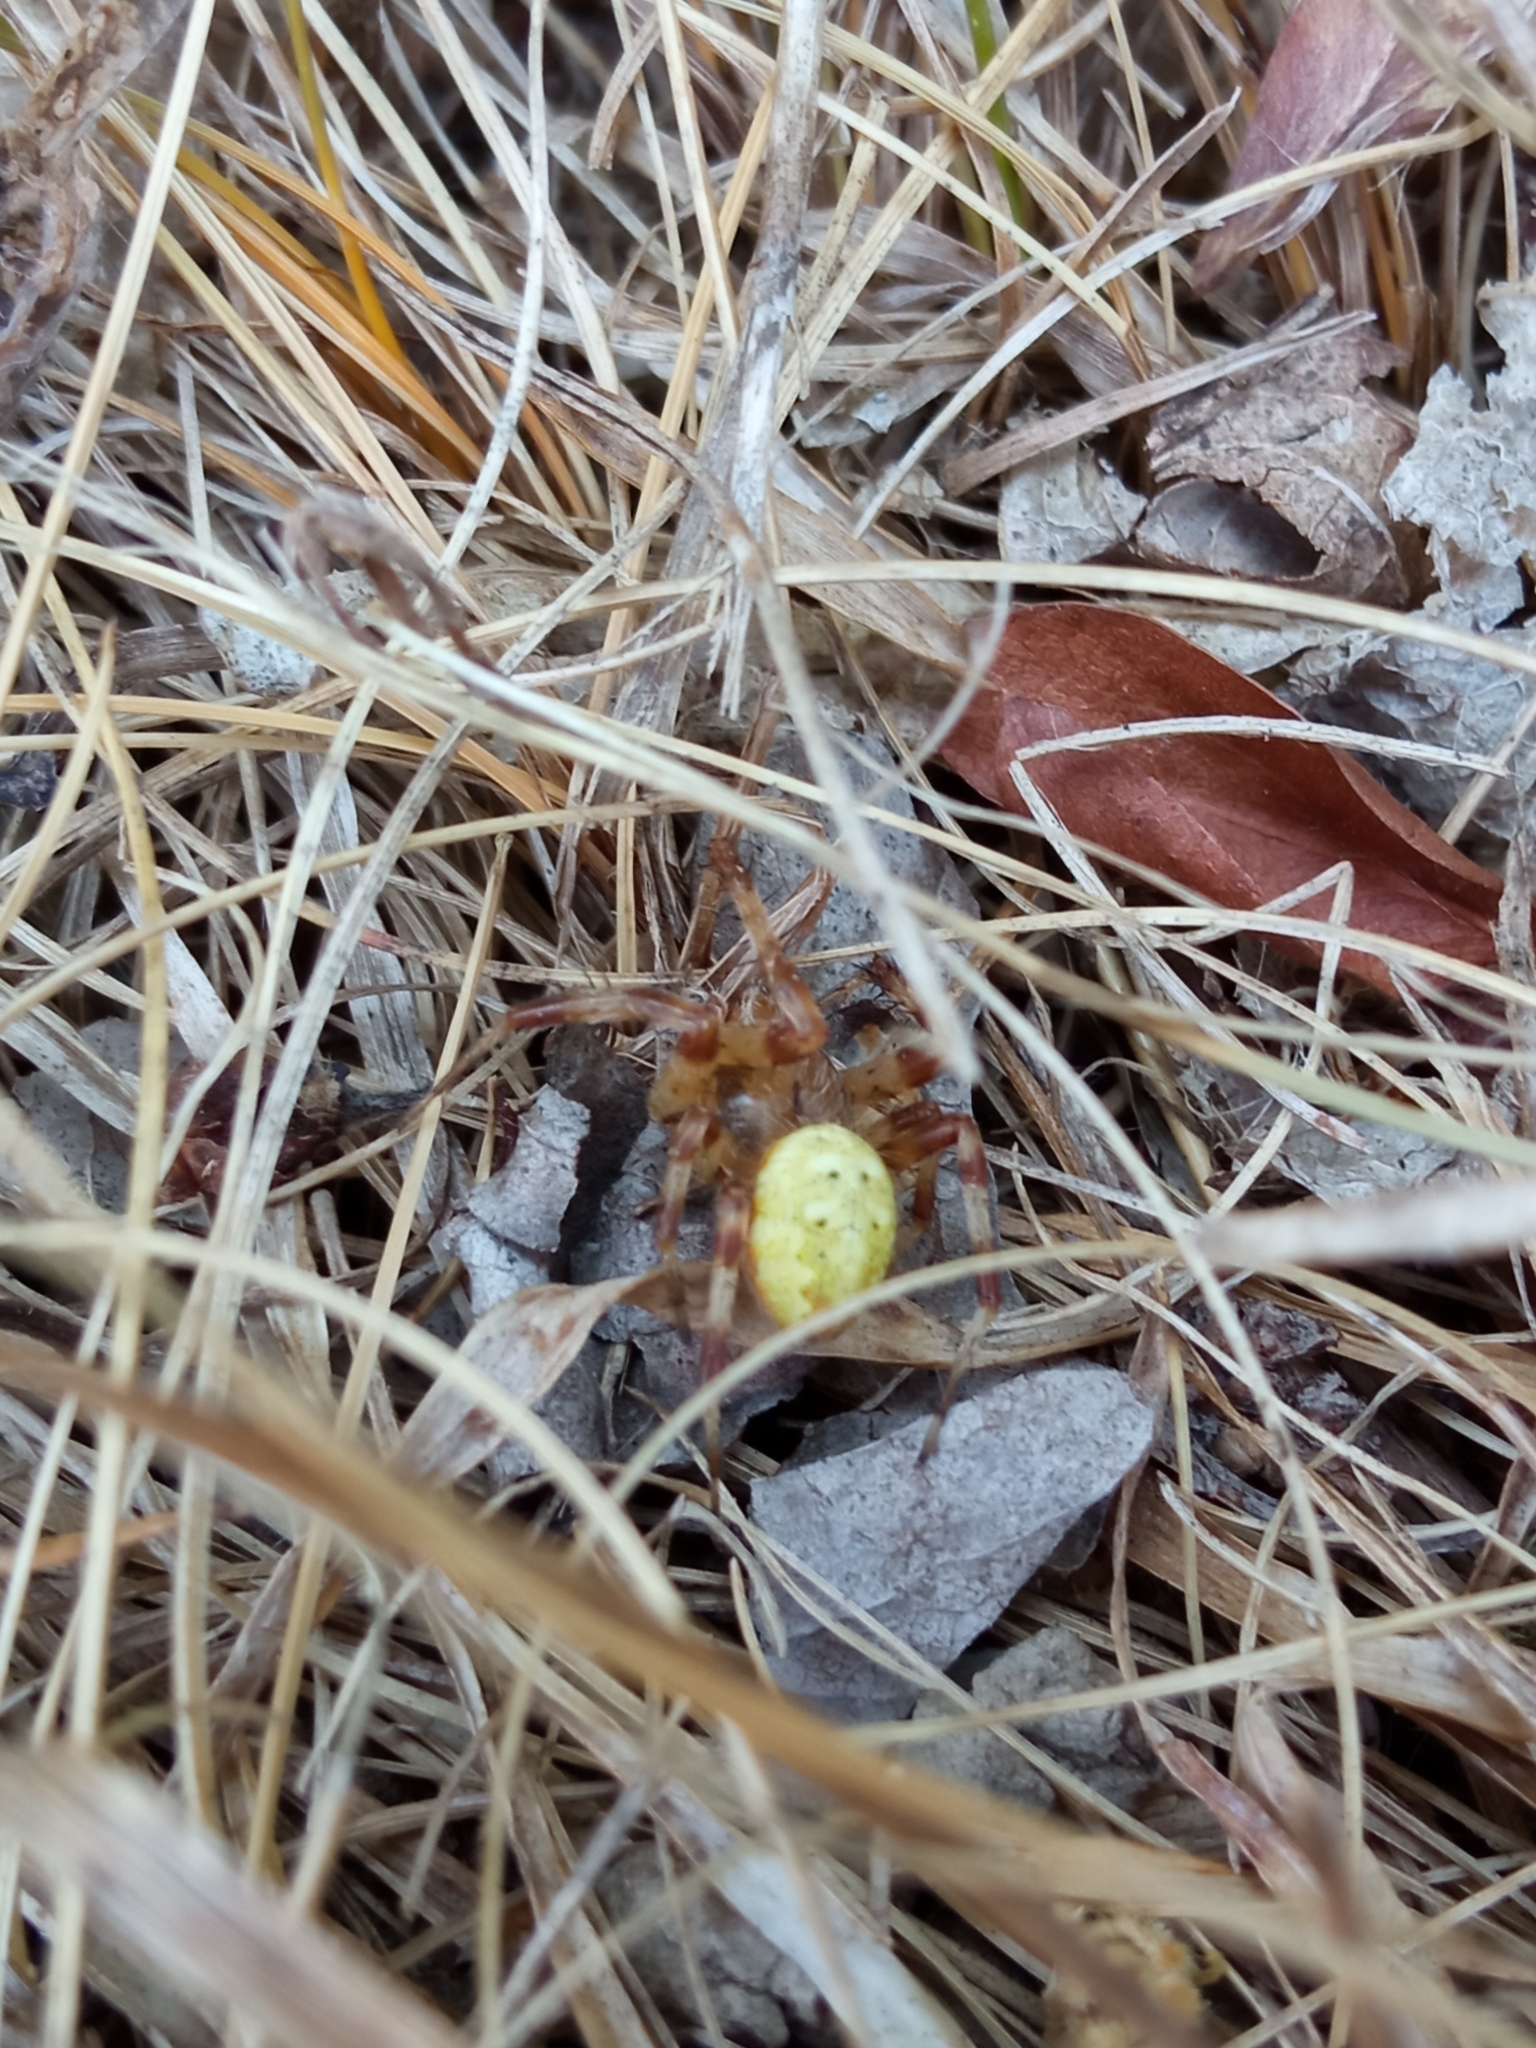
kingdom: Animalia
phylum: Arthropoda
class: Arachnida
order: Araneae
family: Araneidae
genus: Araneus
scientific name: Araneus quadratus
